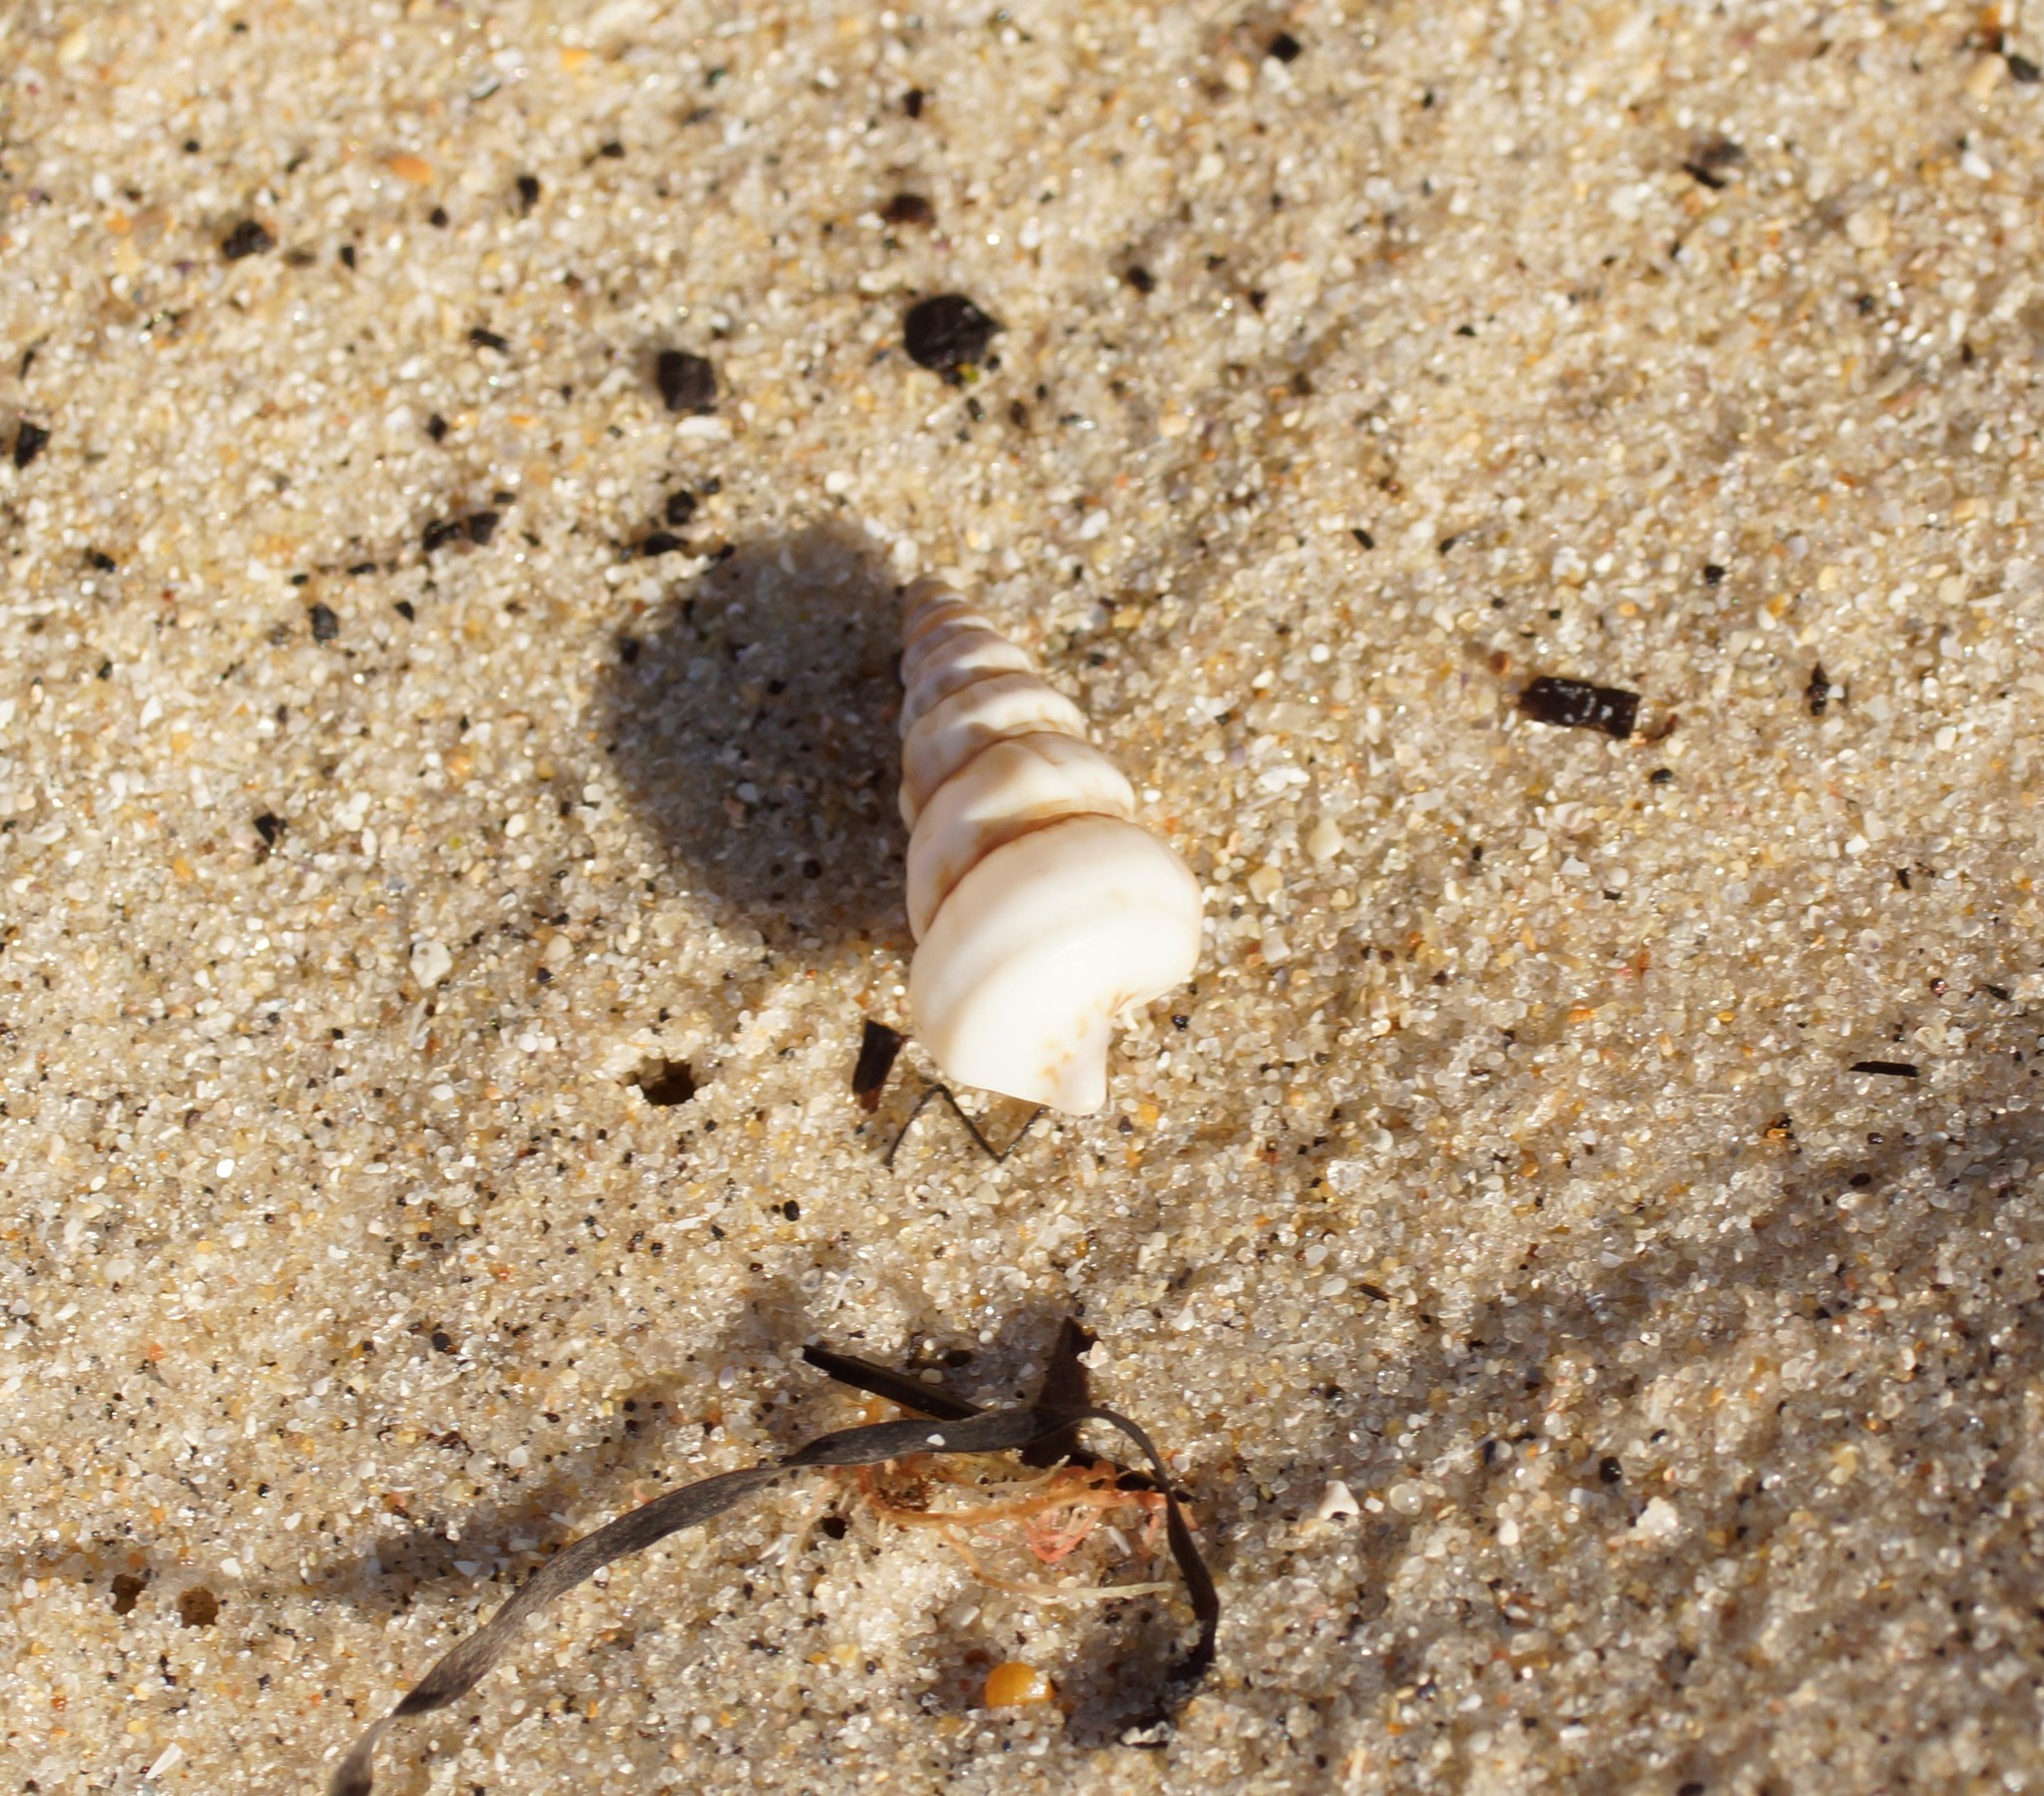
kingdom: Animalia
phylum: Mollusca
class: Gastropoda
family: Plesiotrochidae
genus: Plesiotrochus
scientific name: Plesiotrochus monachus
